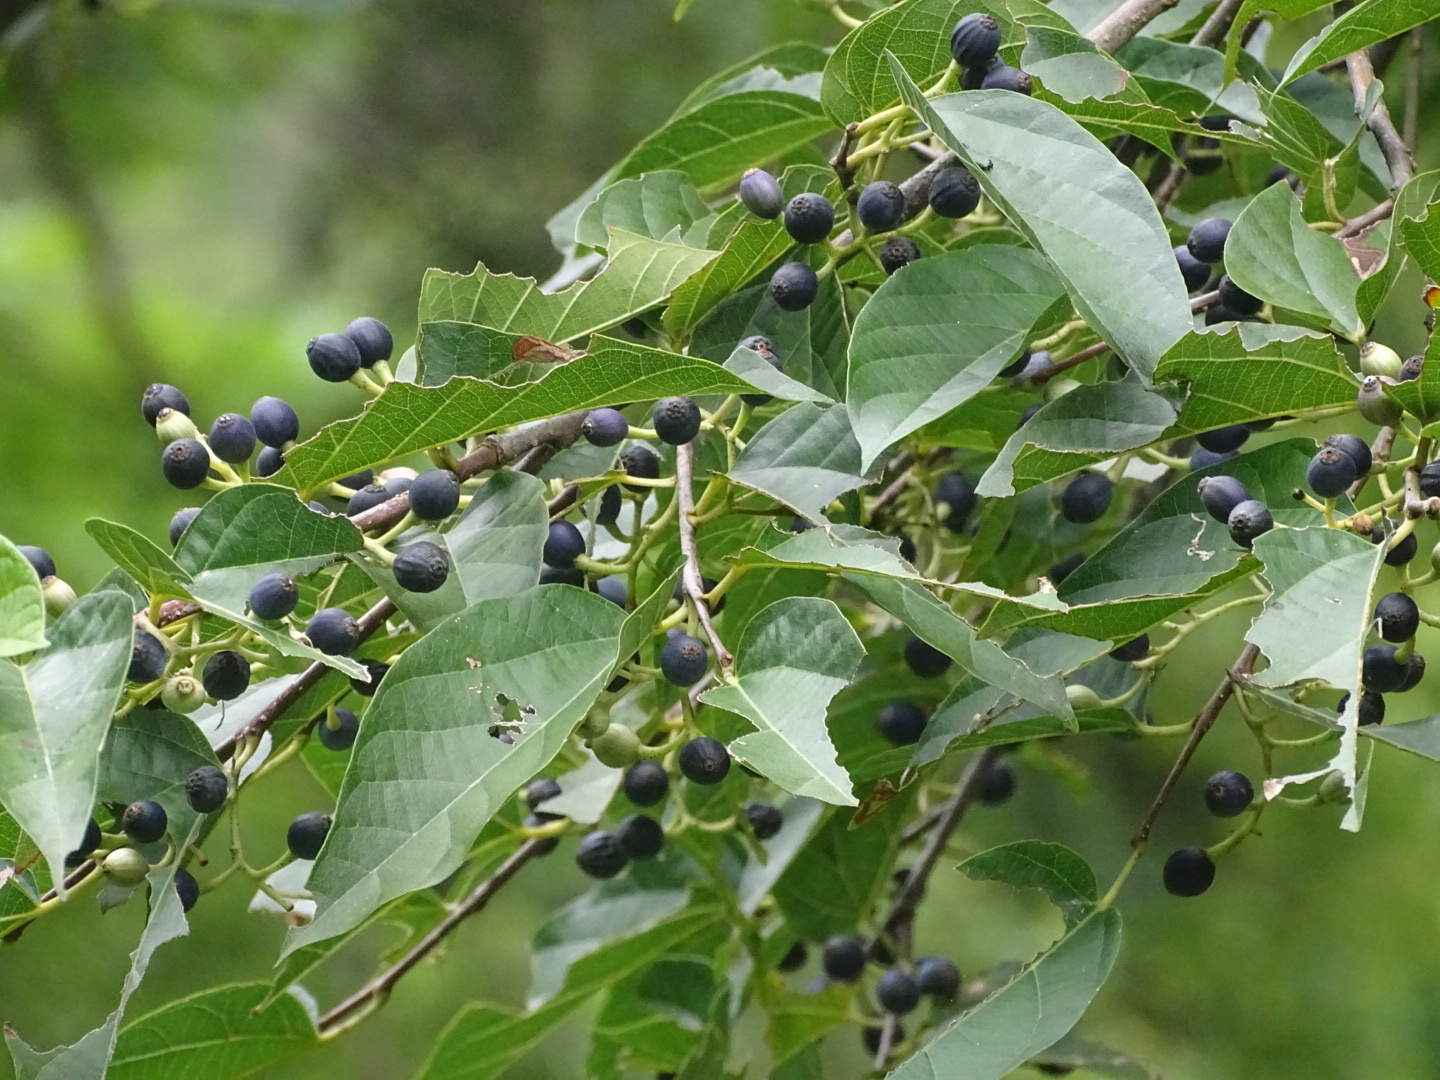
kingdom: Plantae
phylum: Tracheophyta
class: Magnoliopsida
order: Cornales
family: Cornaceae
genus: Alangium
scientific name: Alangium chinense
